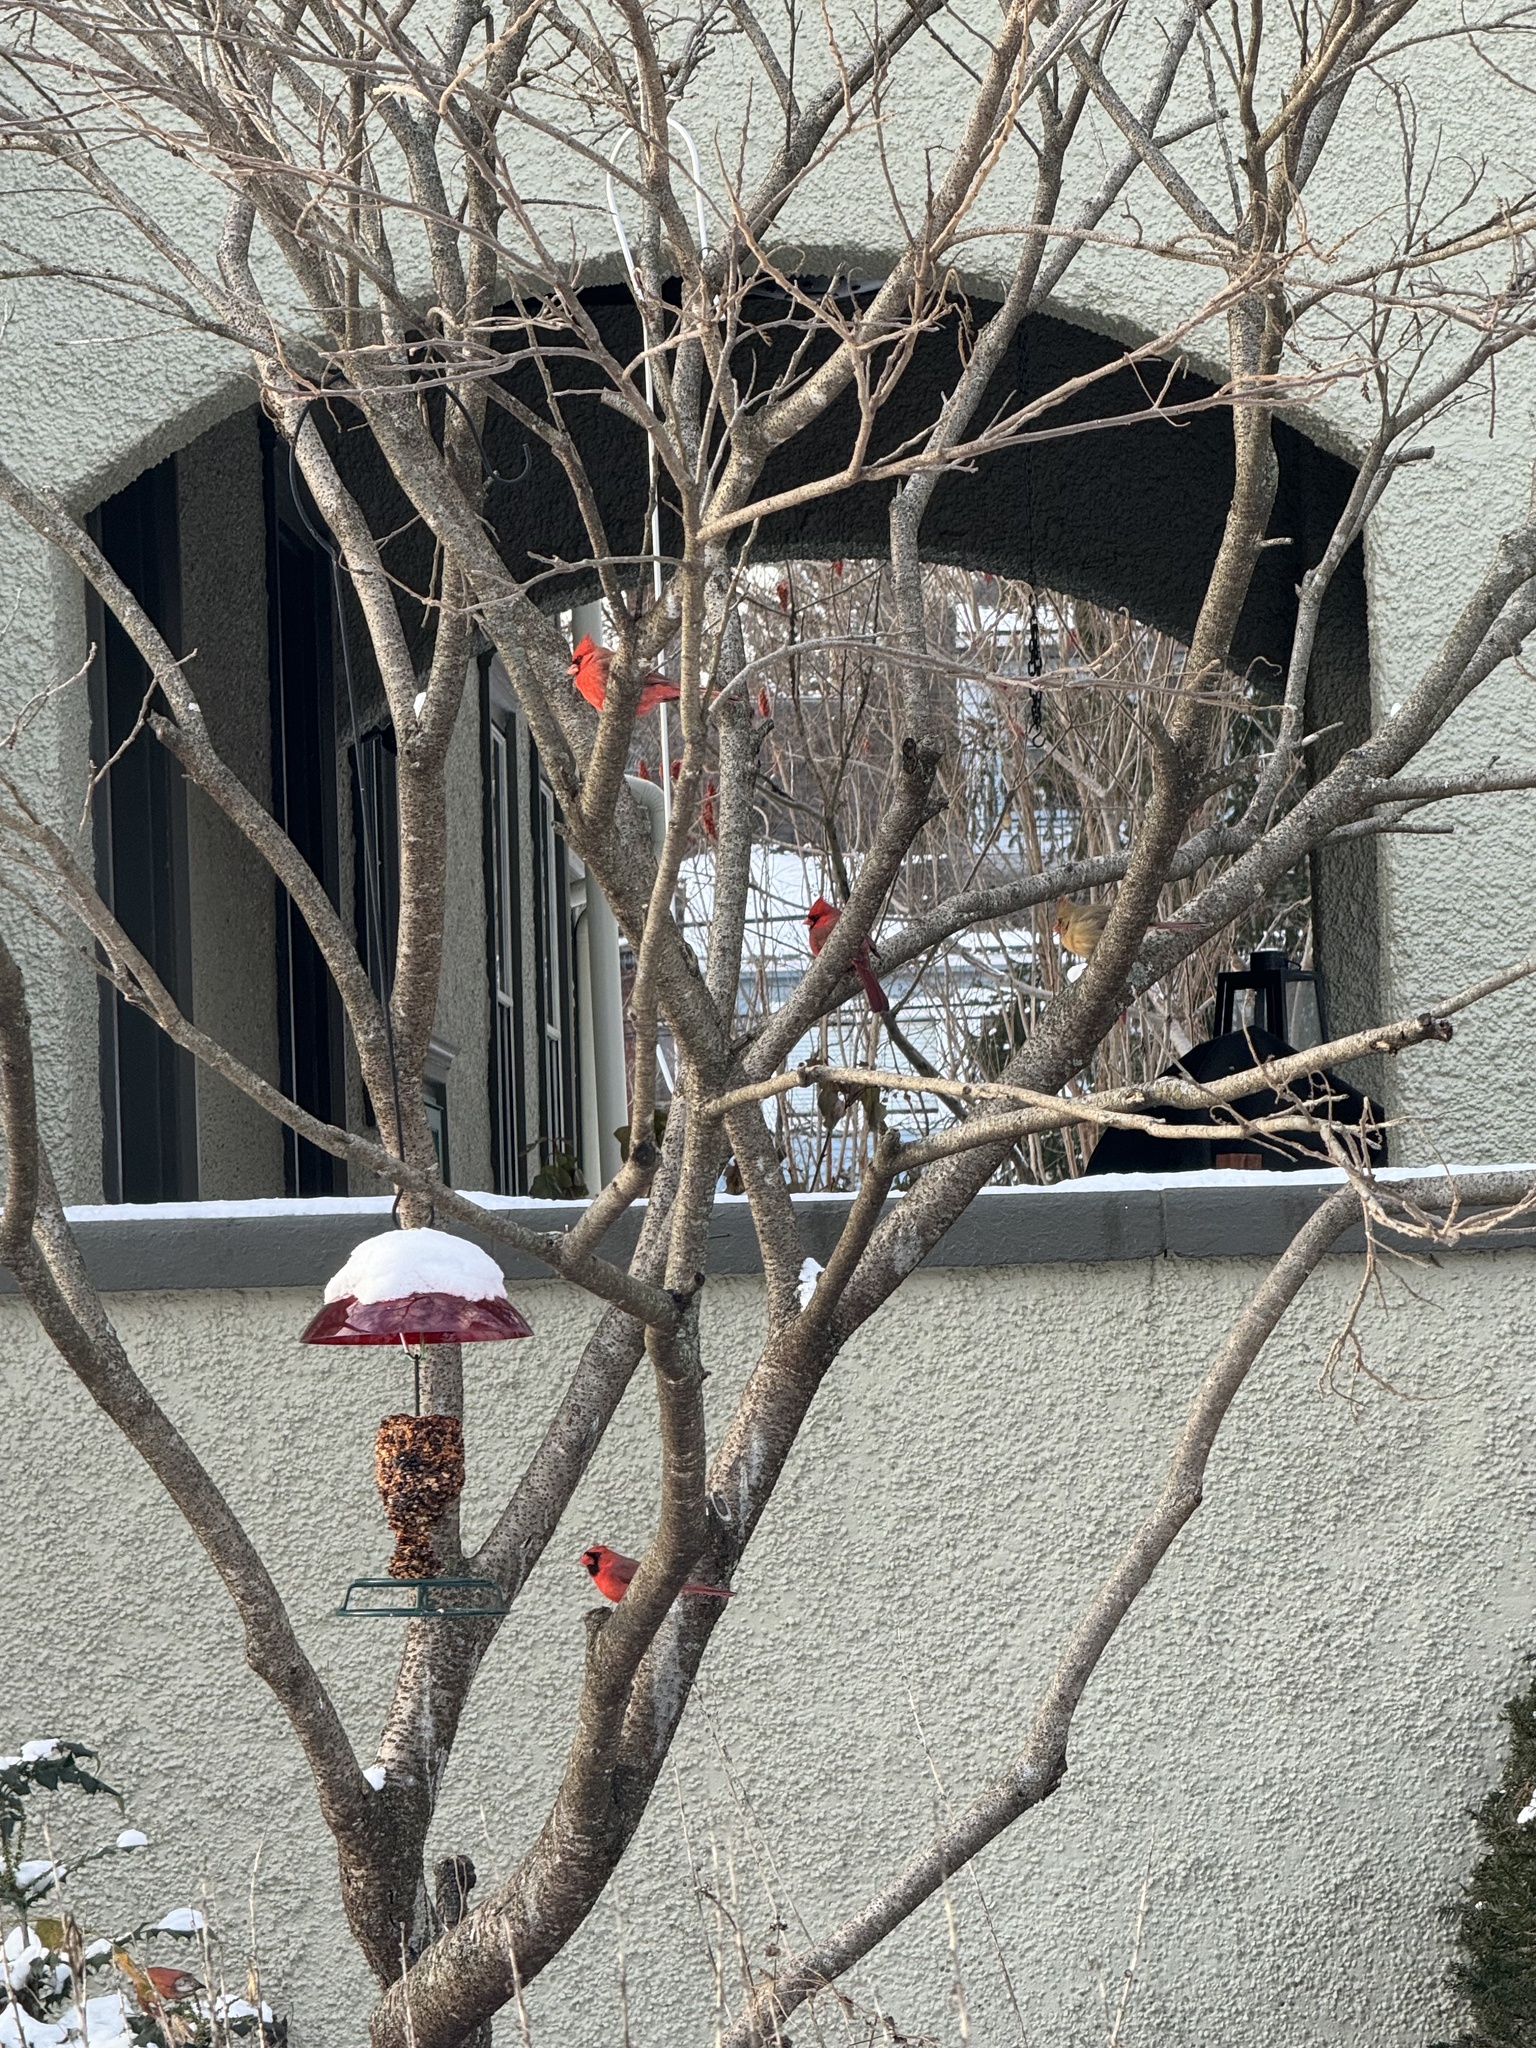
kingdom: Animalia
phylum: Chordata
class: Aves
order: Passeriformes
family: Cardinalidae
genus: Cardinalis
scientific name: Cardinalis cardinalis
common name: Northern cardinal
